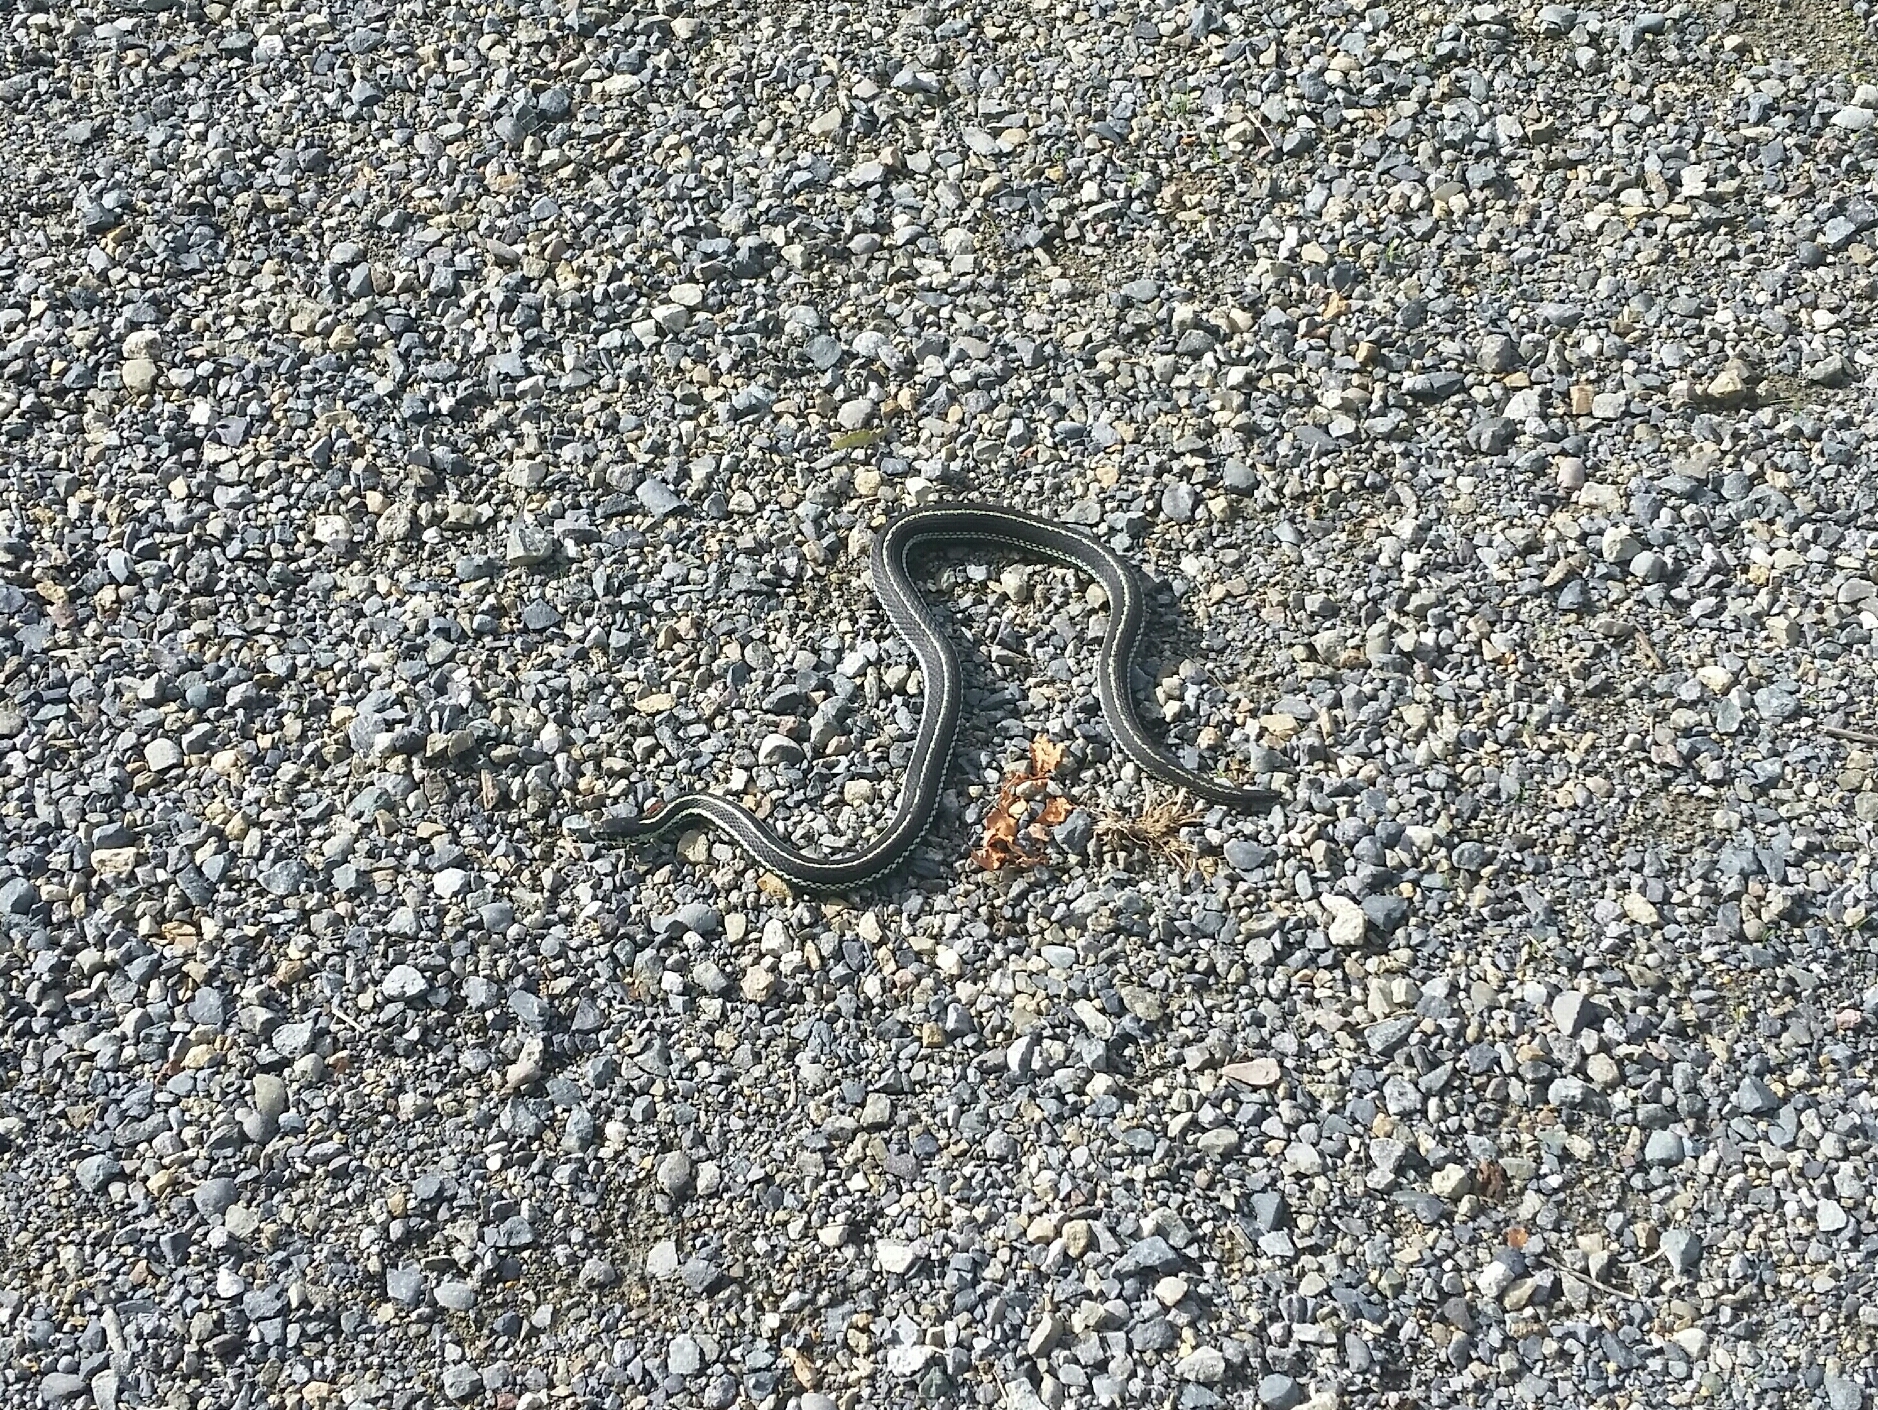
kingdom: Animalia
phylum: Chordata
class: Squamata
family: Colubridae
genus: Thamnophis
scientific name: Thamnophis sirtalis
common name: Common garter snake
